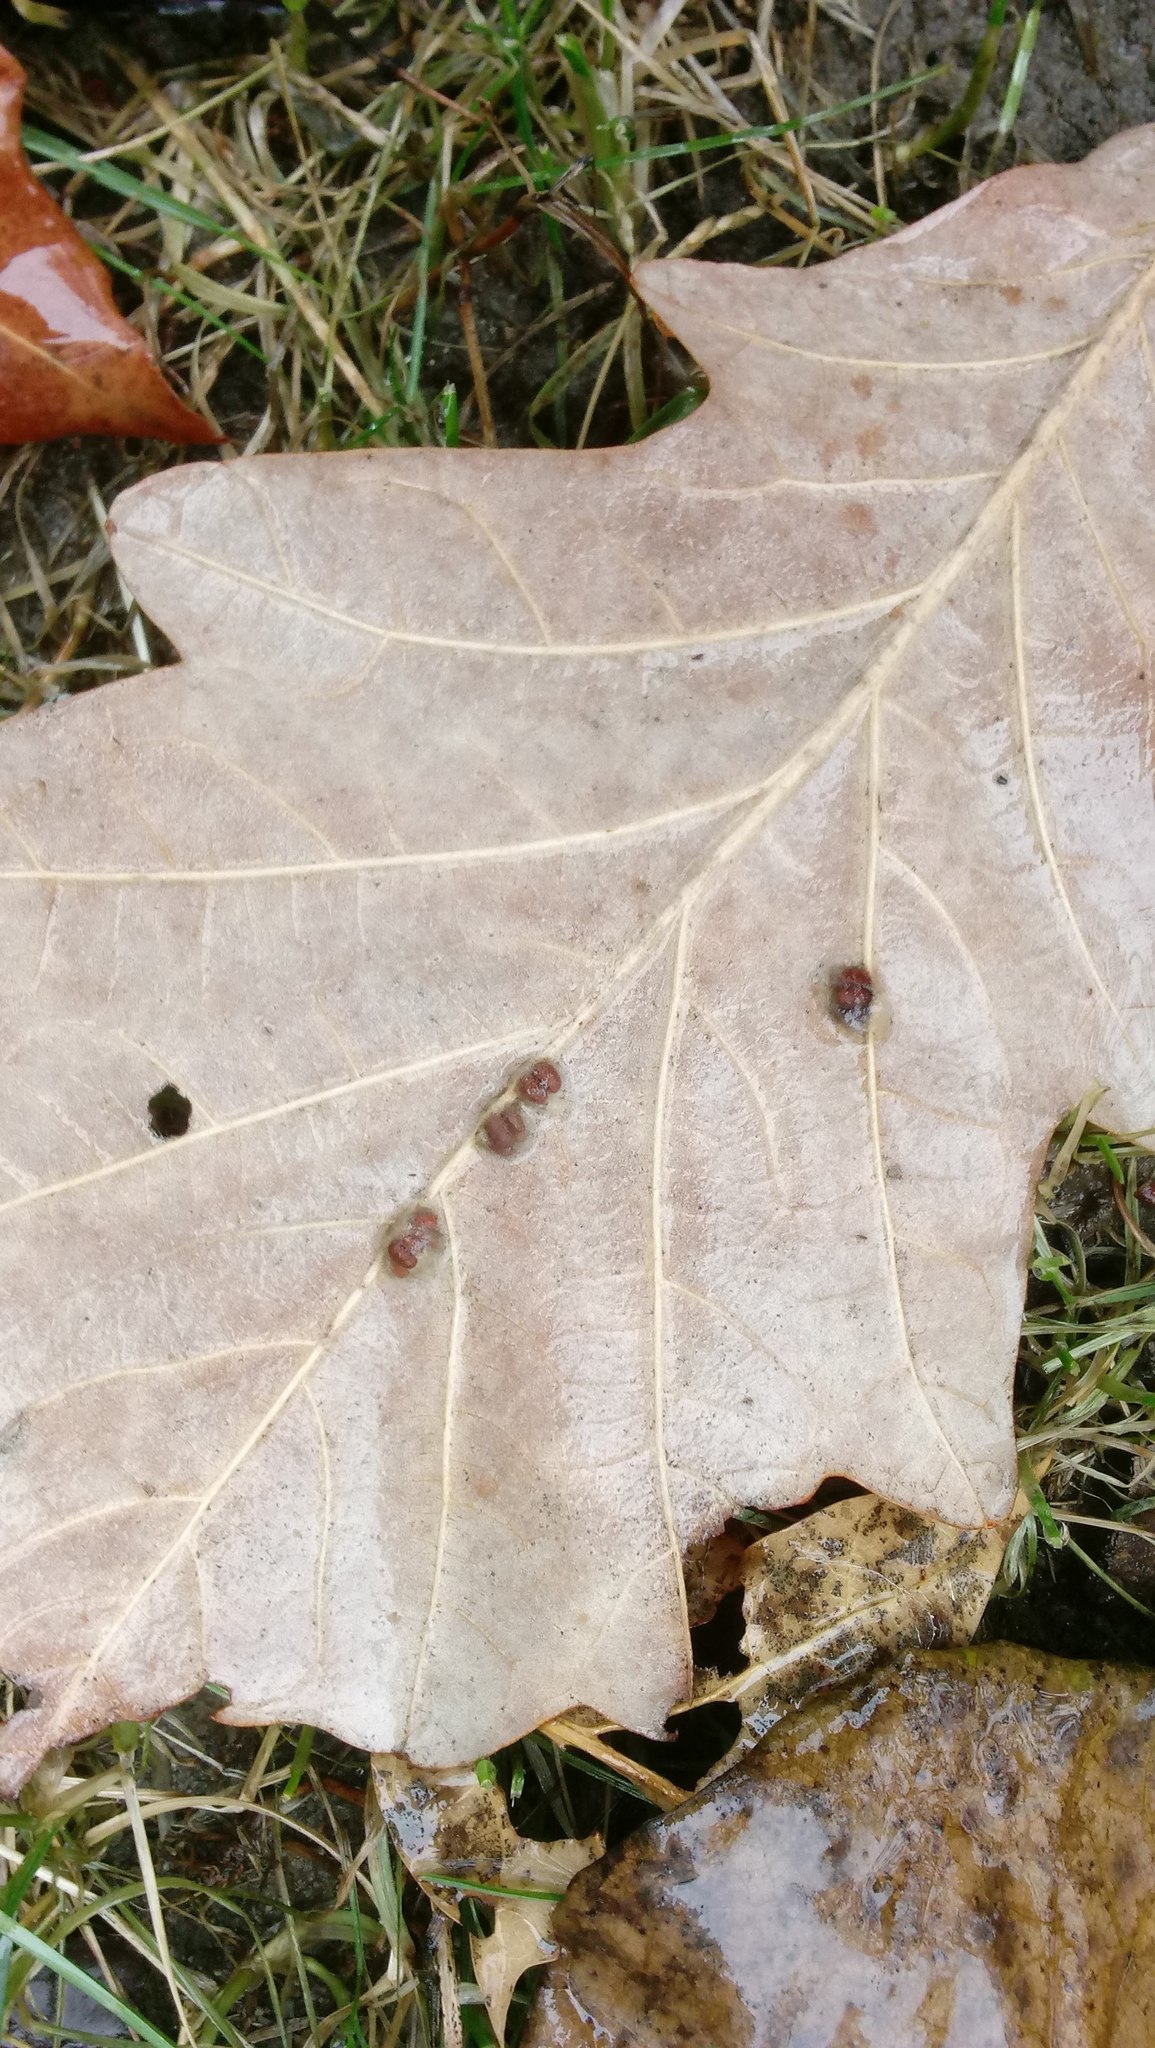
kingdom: Animalia
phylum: Arthropoda
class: Insecta
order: Hymenoptera
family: Cynipidae
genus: Andricus
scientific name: Andricus Druon ignotum
